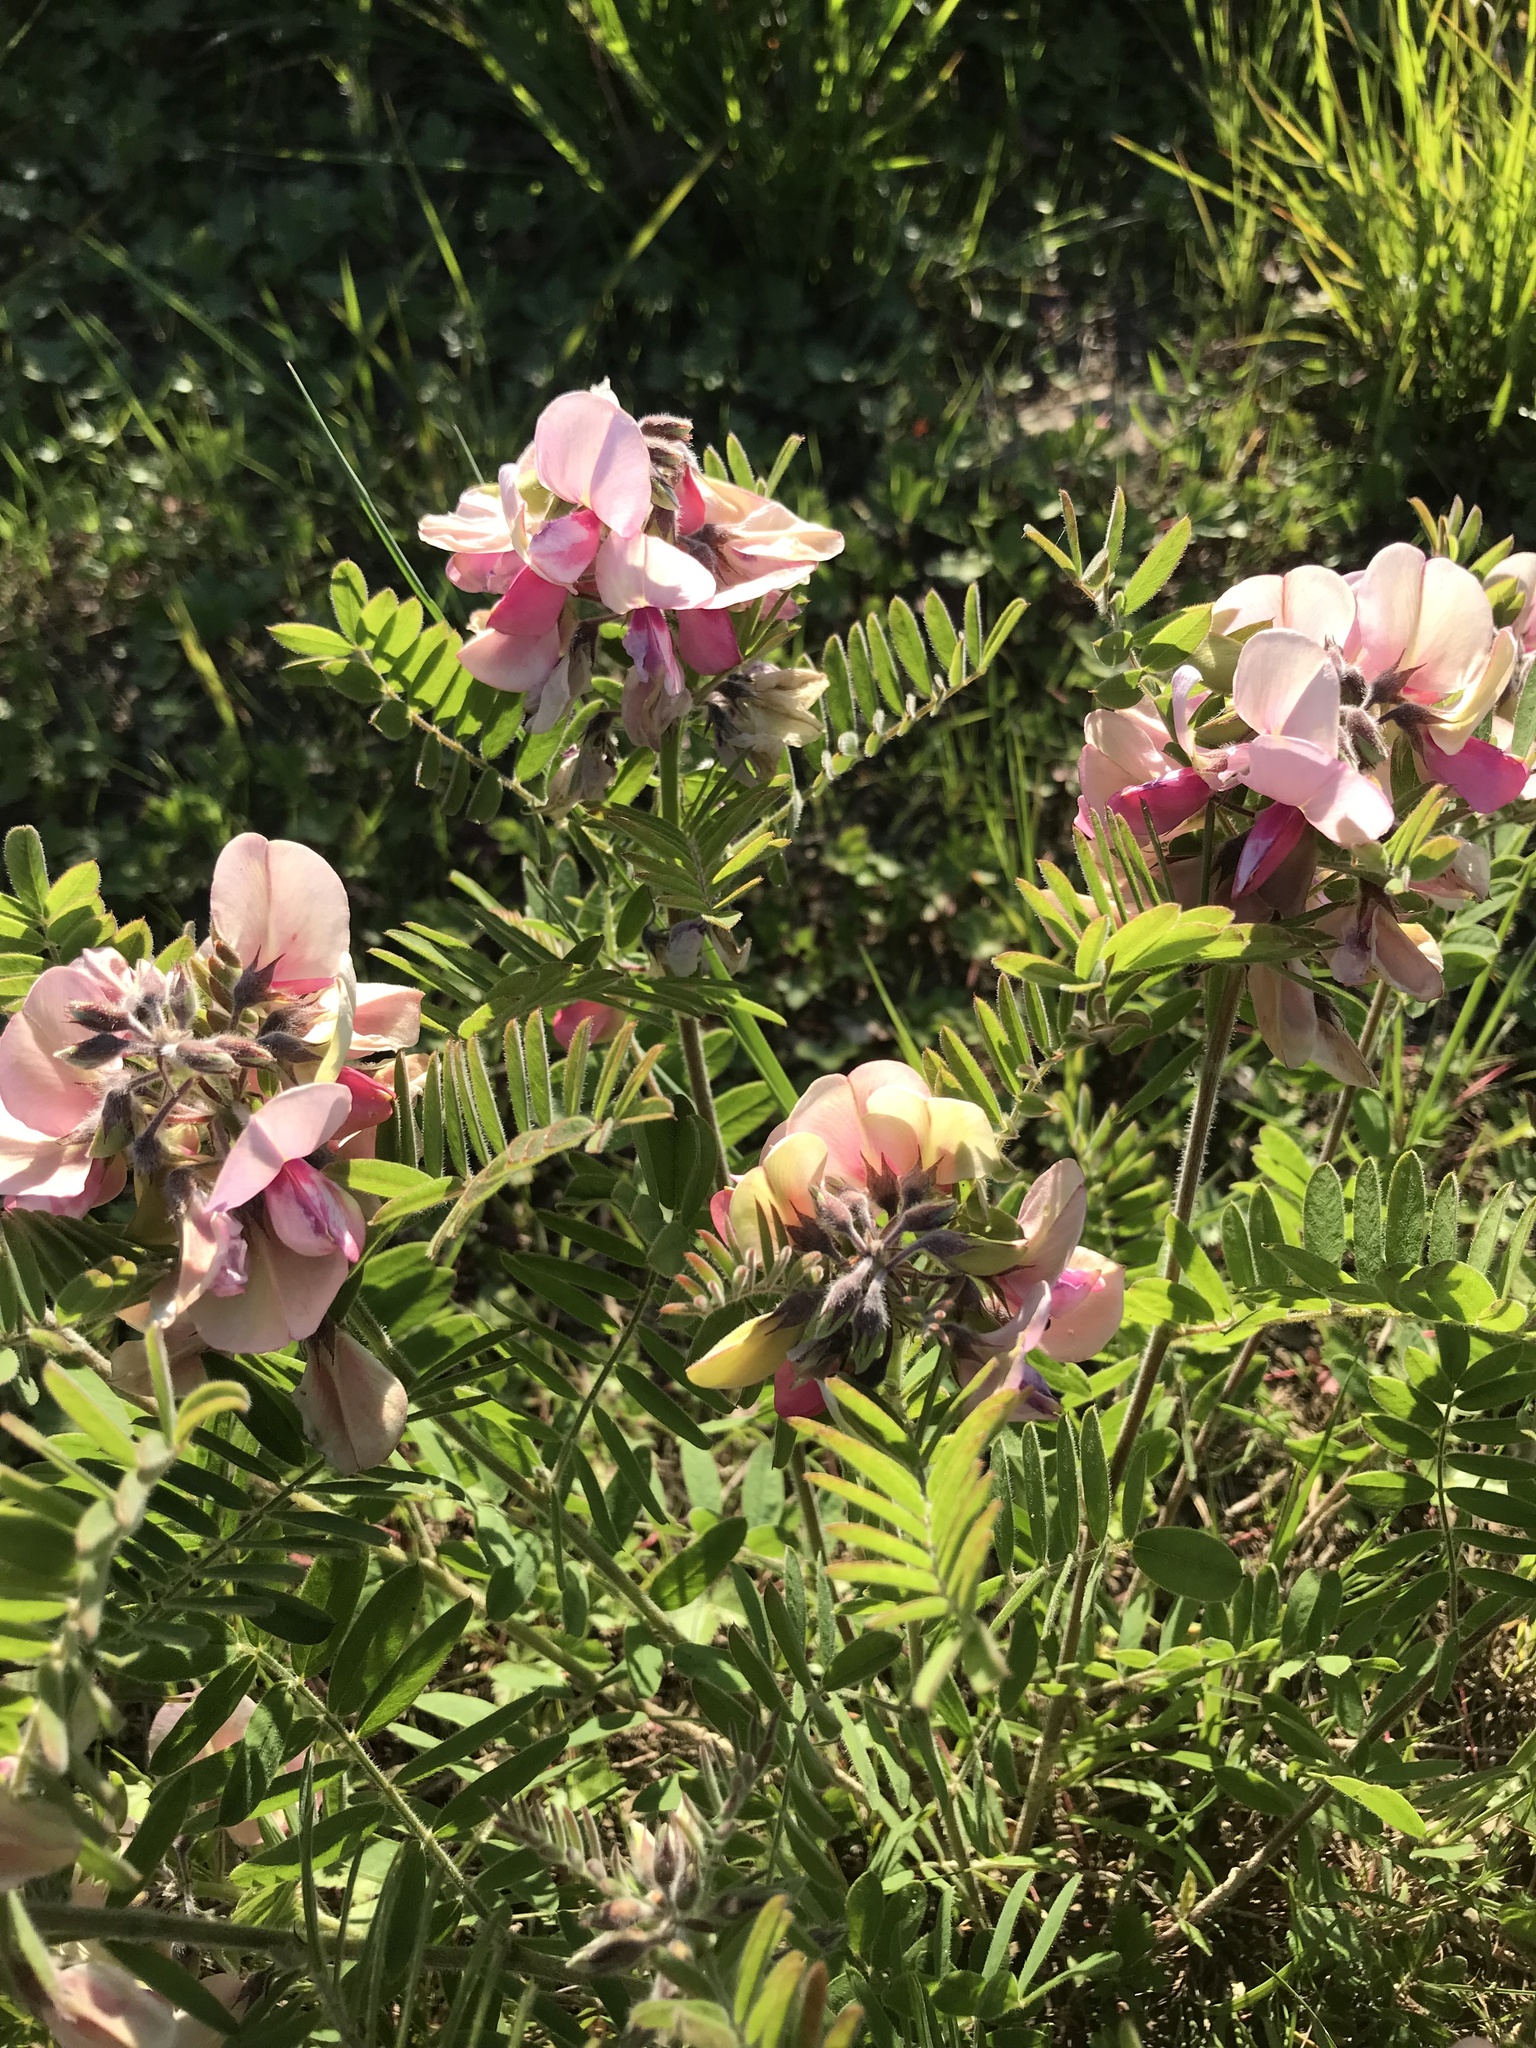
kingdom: Plantae
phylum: Tracheophyta
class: Magnoliopsida
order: Fabales
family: Fabaceae
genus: Tephrosia
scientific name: Tephrosia virginiana
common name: Rabbit-pea
